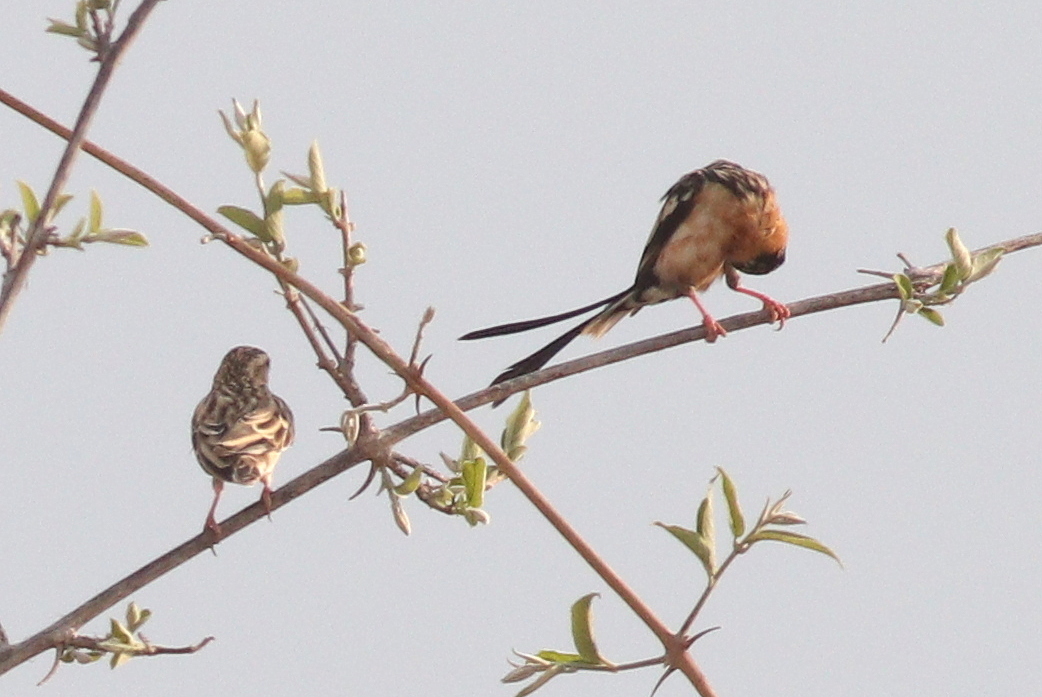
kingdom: Animalia
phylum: Chordata
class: Aves
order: Passeriformes
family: Viduidae
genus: Vidua
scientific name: Vidua regia
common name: Shaft-tailed whydah
